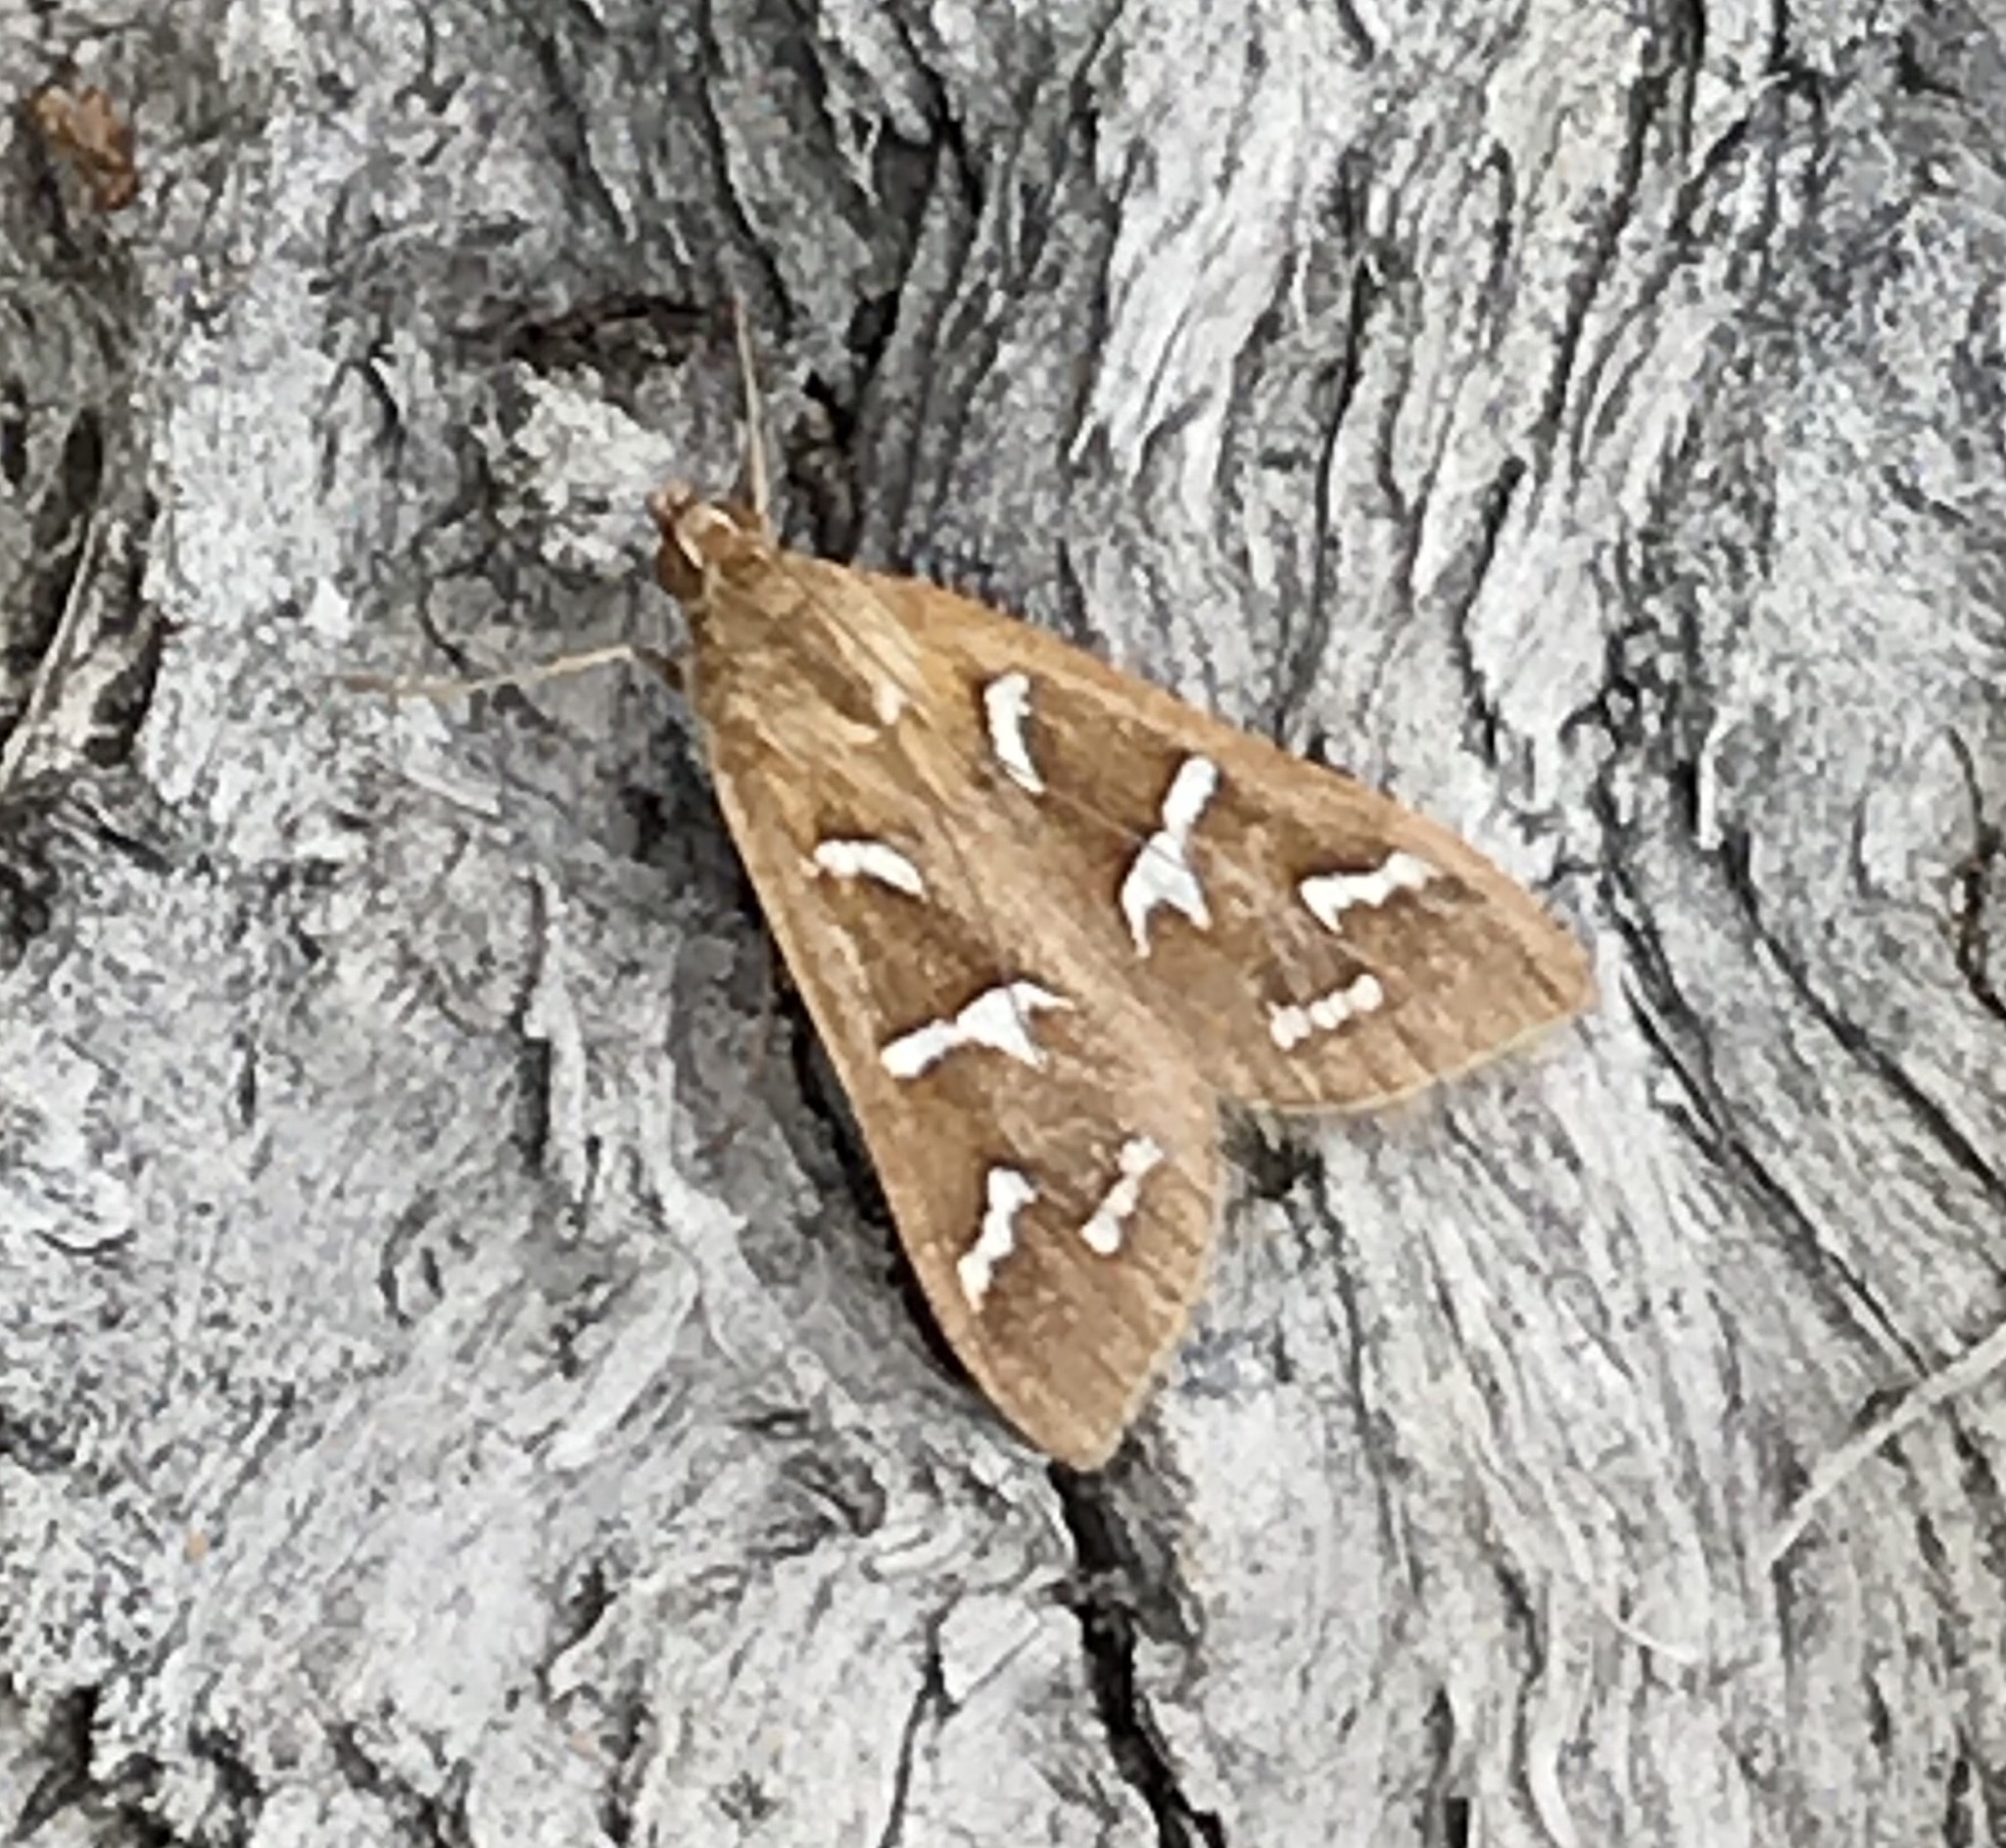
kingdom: Animalia
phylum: Arthropoda
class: Insecta
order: Lepidoptera
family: Crambidae
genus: Diastictis
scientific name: Diastictis fracturalis
